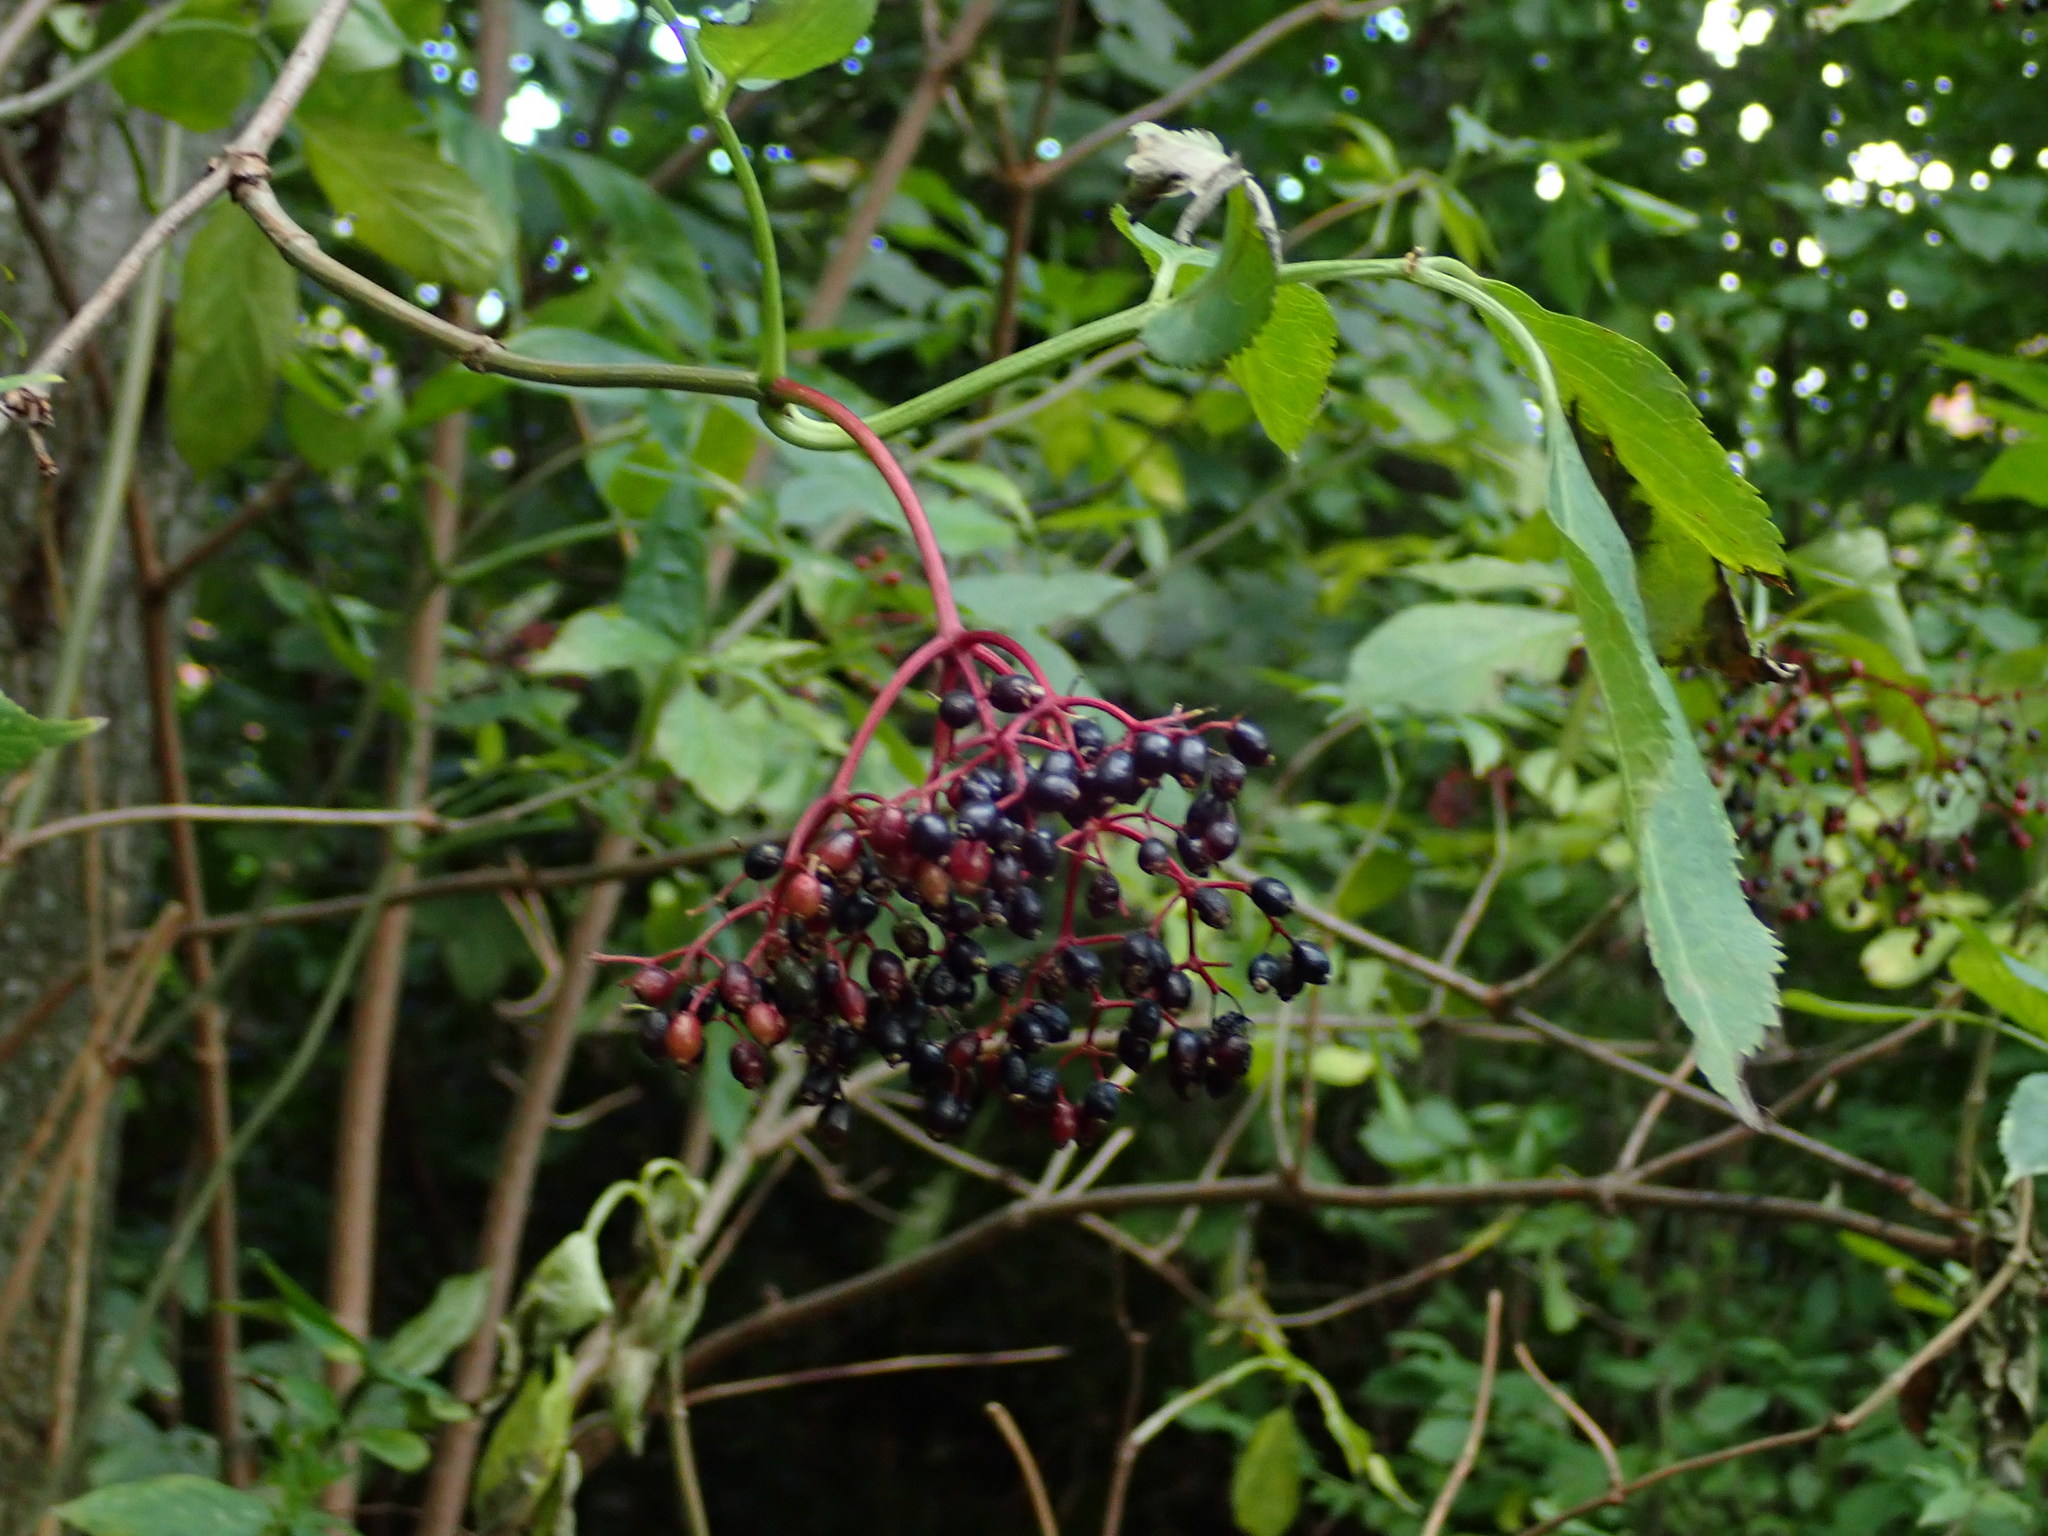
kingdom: Plantae
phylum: Tracheophyta
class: Magnoliopsida
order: Dipsacales
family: Viburnaceae
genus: Sambucus
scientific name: Sambucus nigra
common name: Elder
